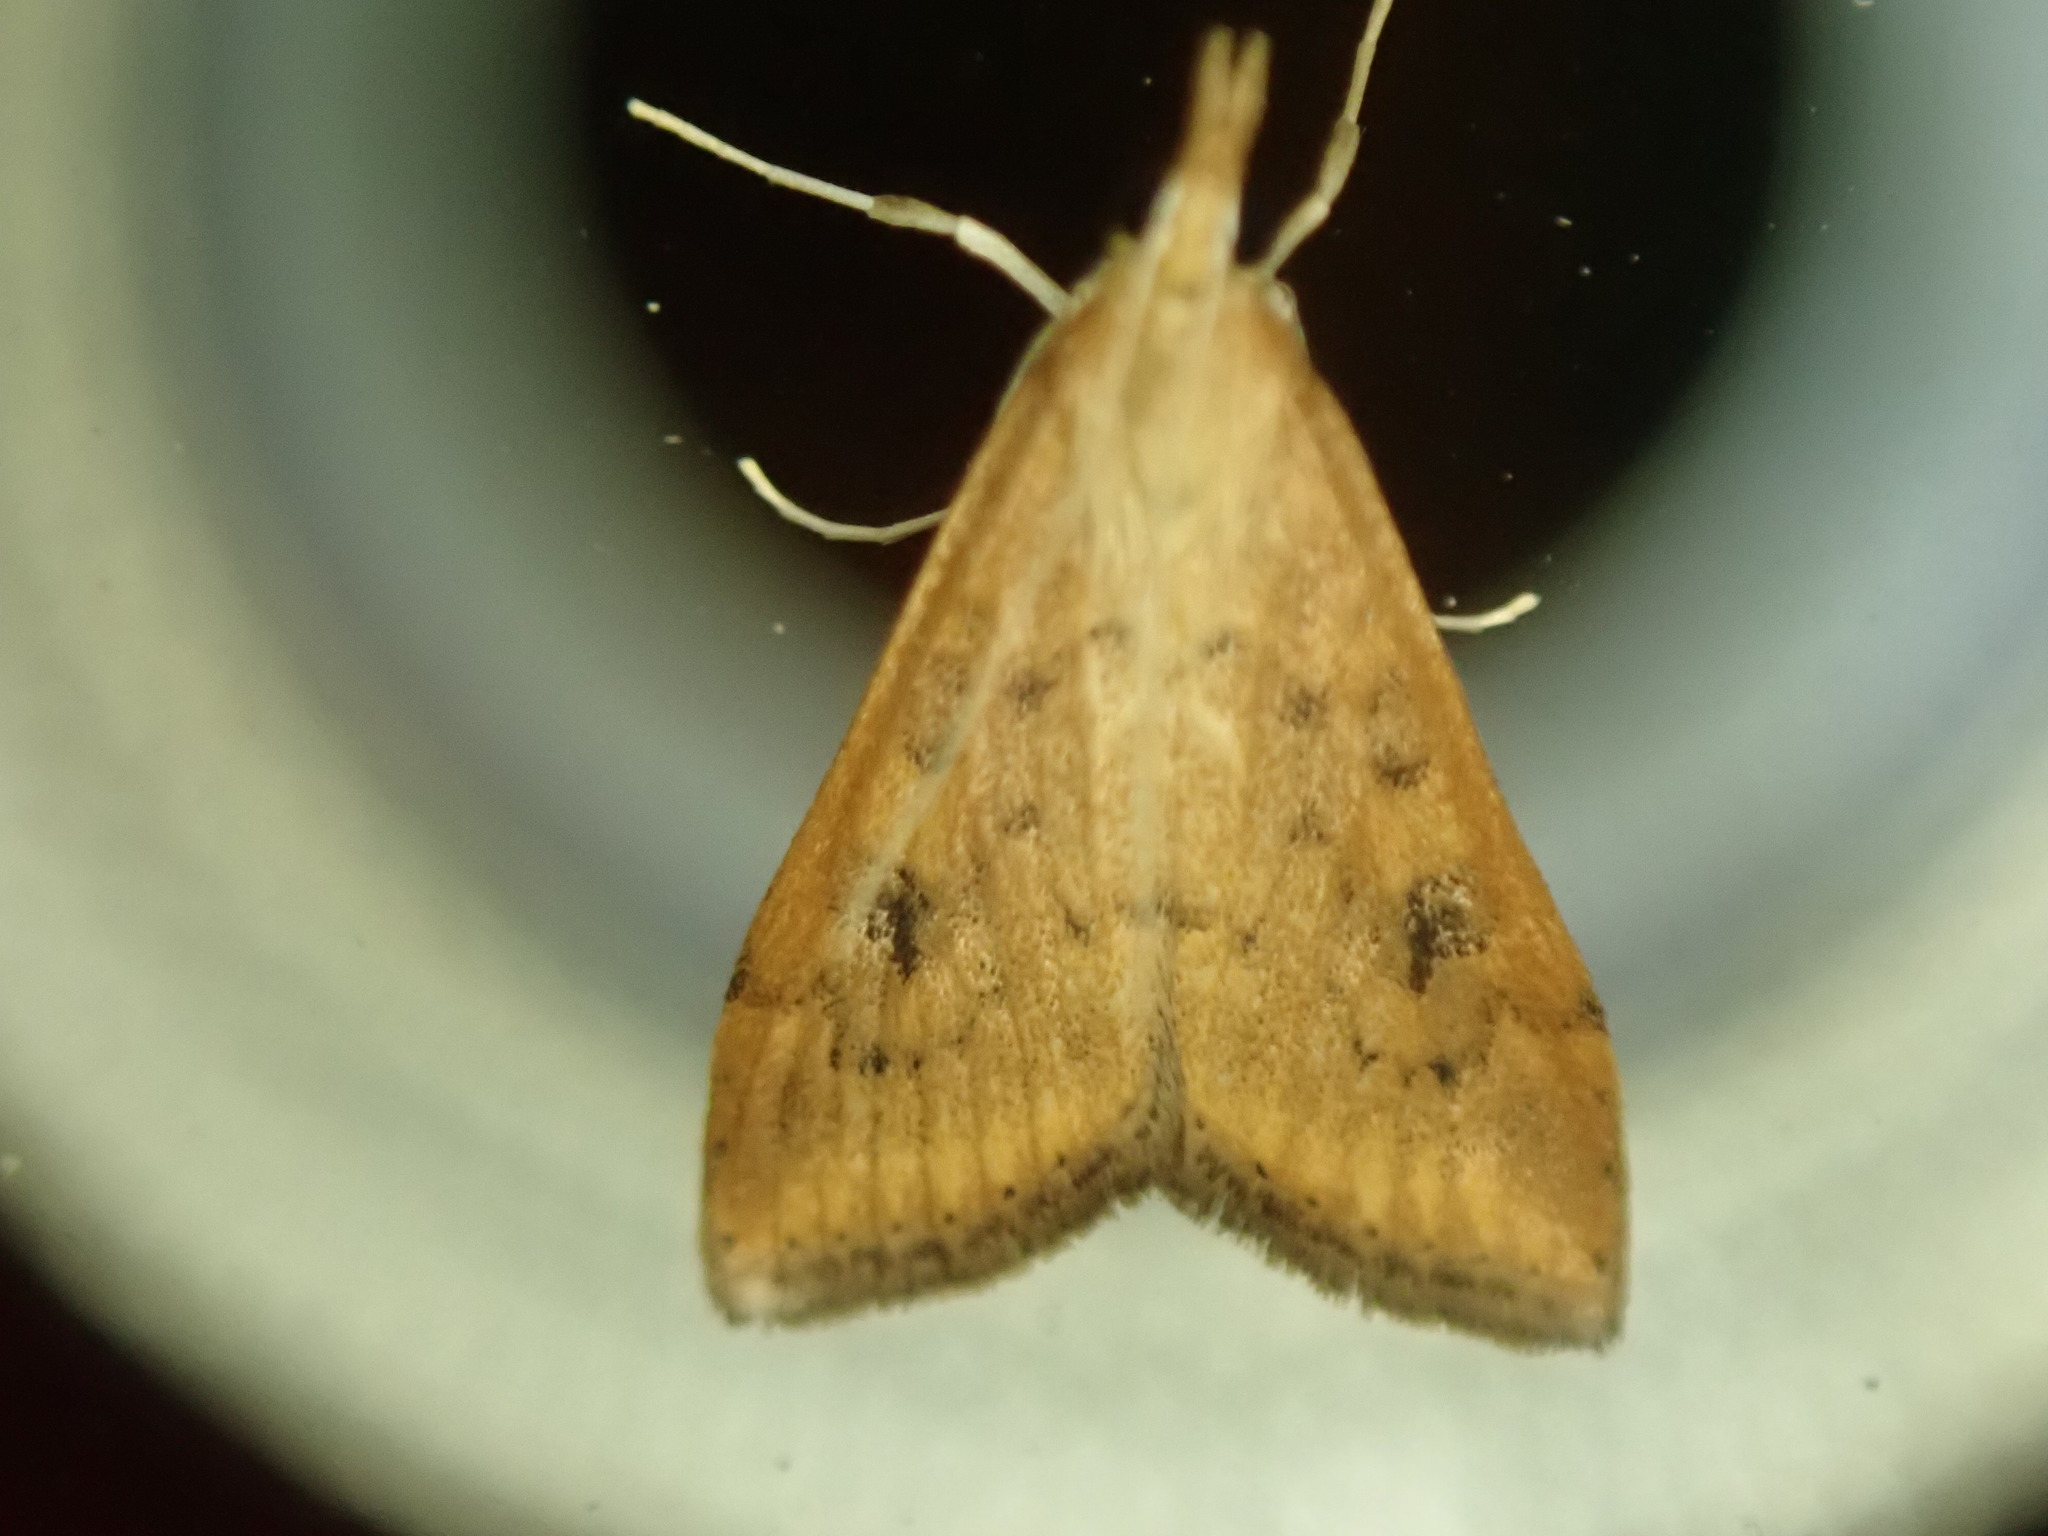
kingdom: Animalia
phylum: Arthropoda
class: Insecta
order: Lepidoptera
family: Crambidae
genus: Udea
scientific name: Udea ferrugalis
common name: Rusty dot
